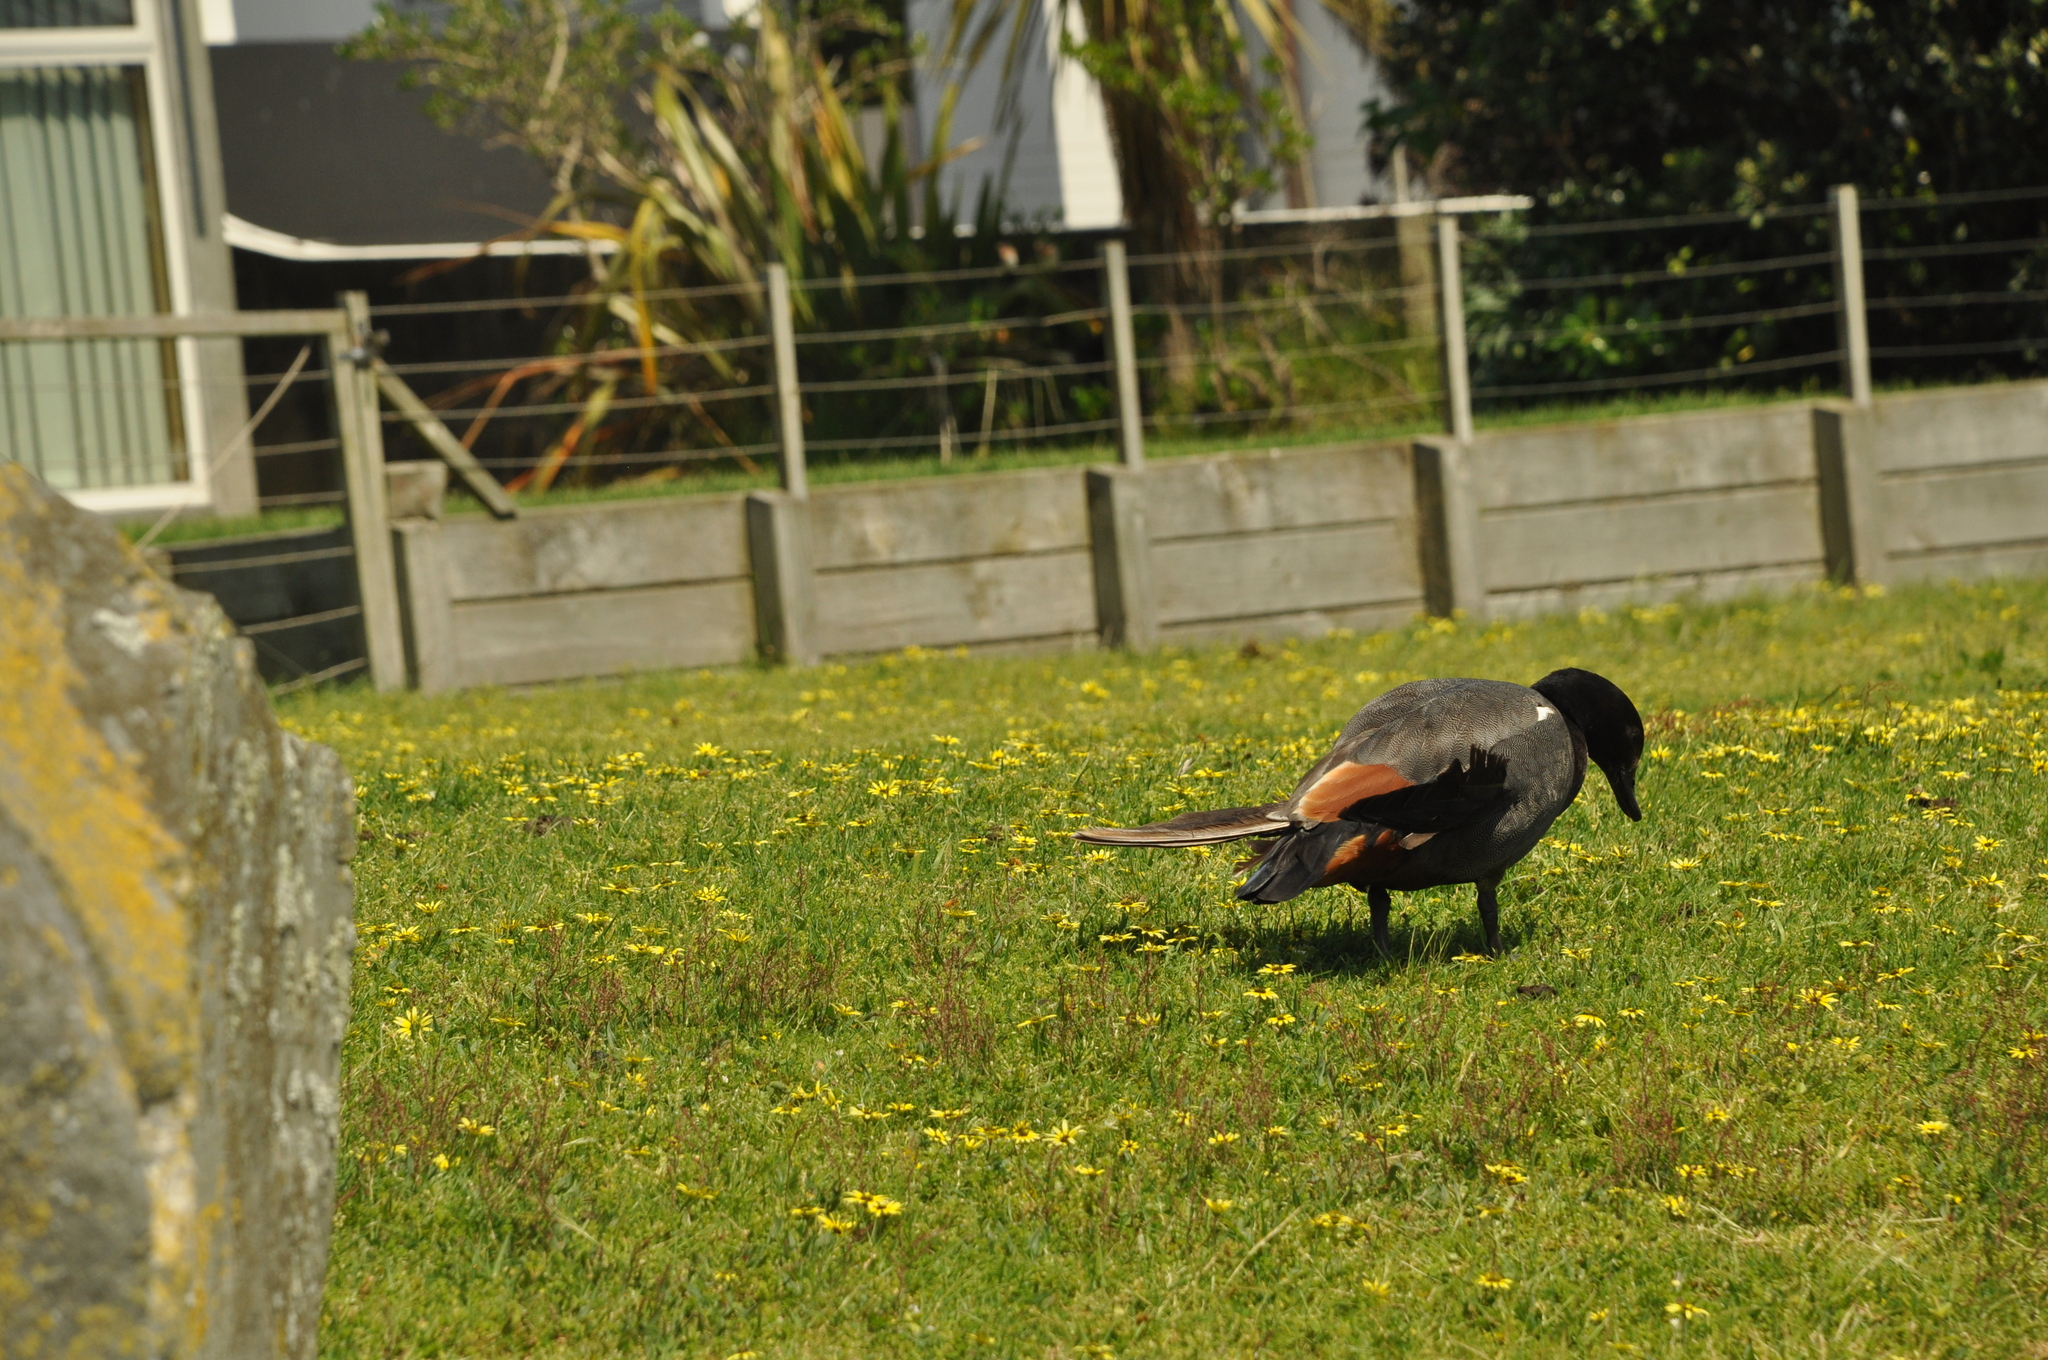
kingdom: Animalia
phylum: Chordata
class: Aves
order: Anseriformes
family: Anatidae
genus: Tadorna
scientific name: Tadorna variegata
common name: Paradise shelduck
